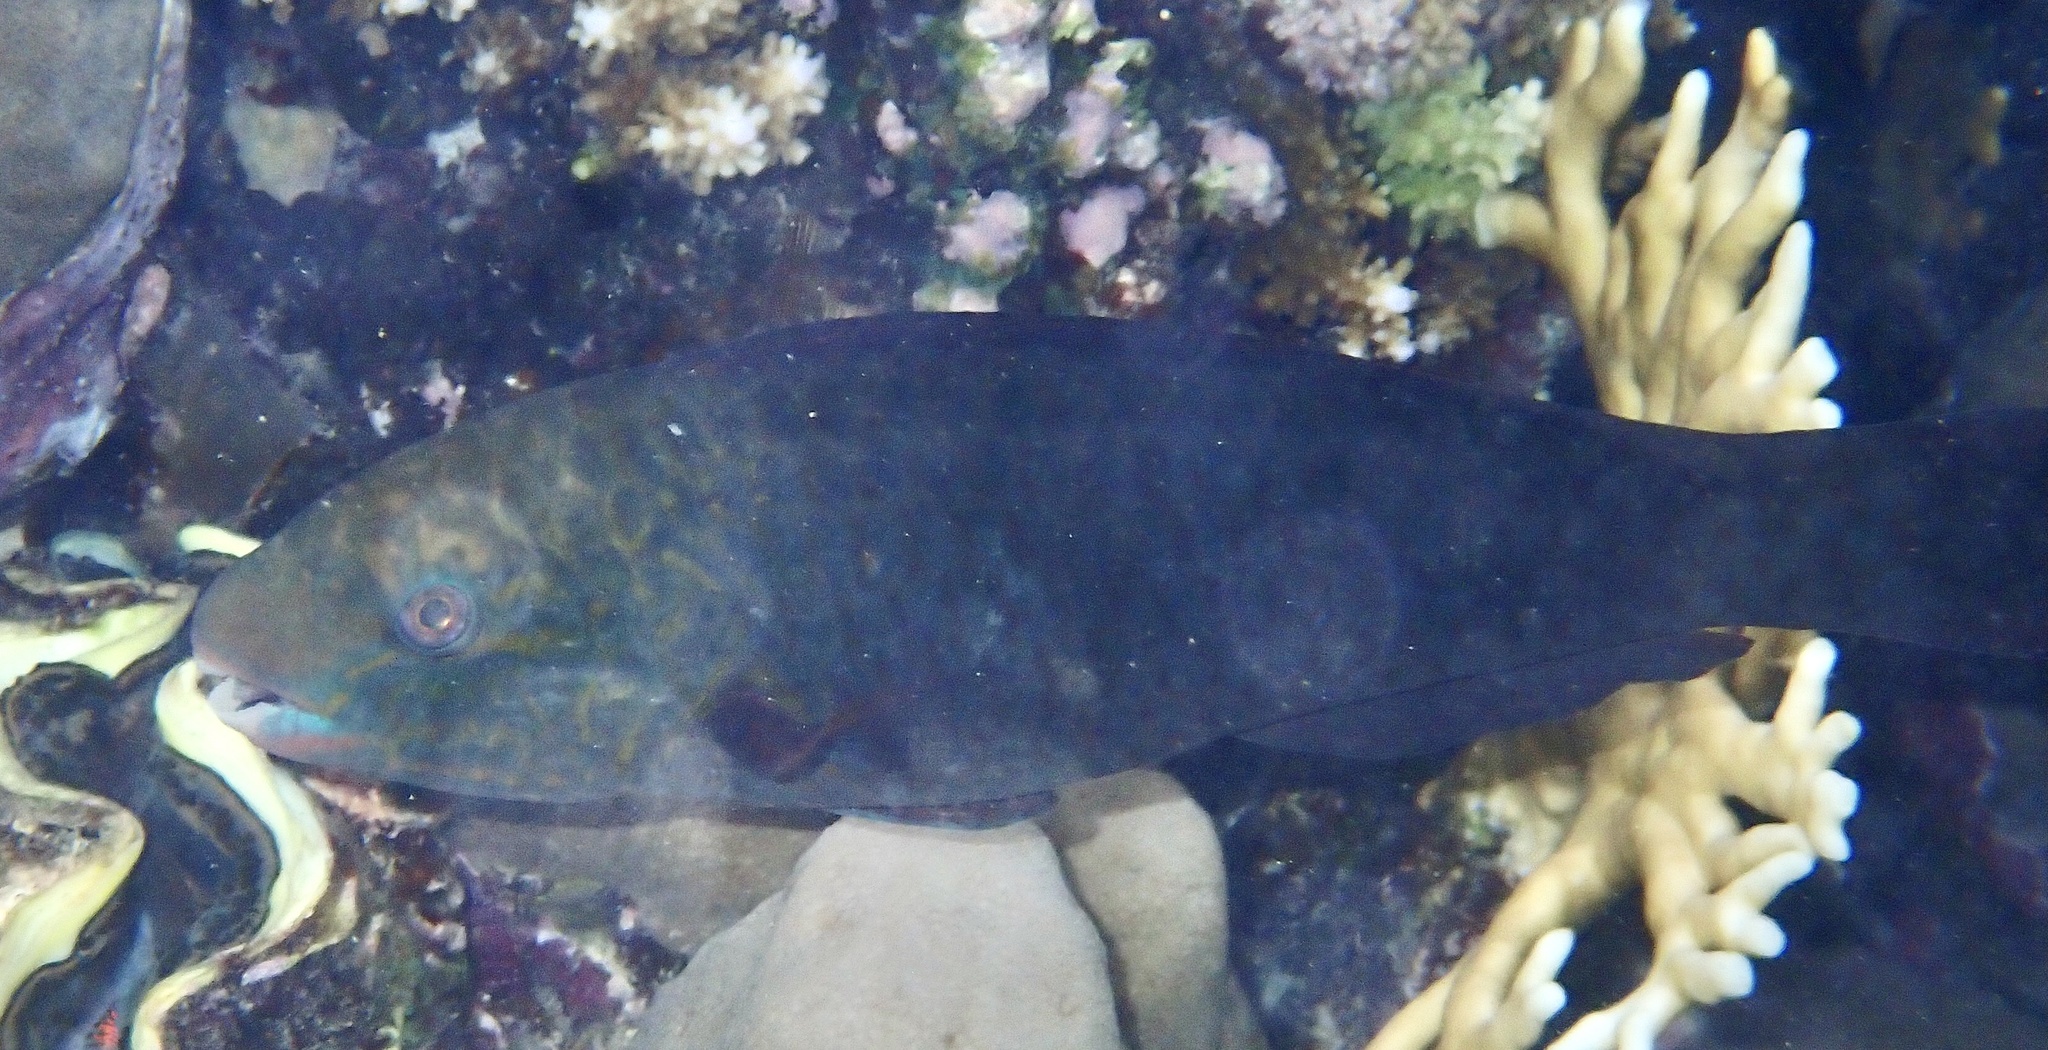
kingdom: Animalia
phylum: Chordata
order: Perciformes
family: Scaridae
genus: Chlorurus
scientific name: Chlorurus sordidus
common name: Bullethead parrotfish
